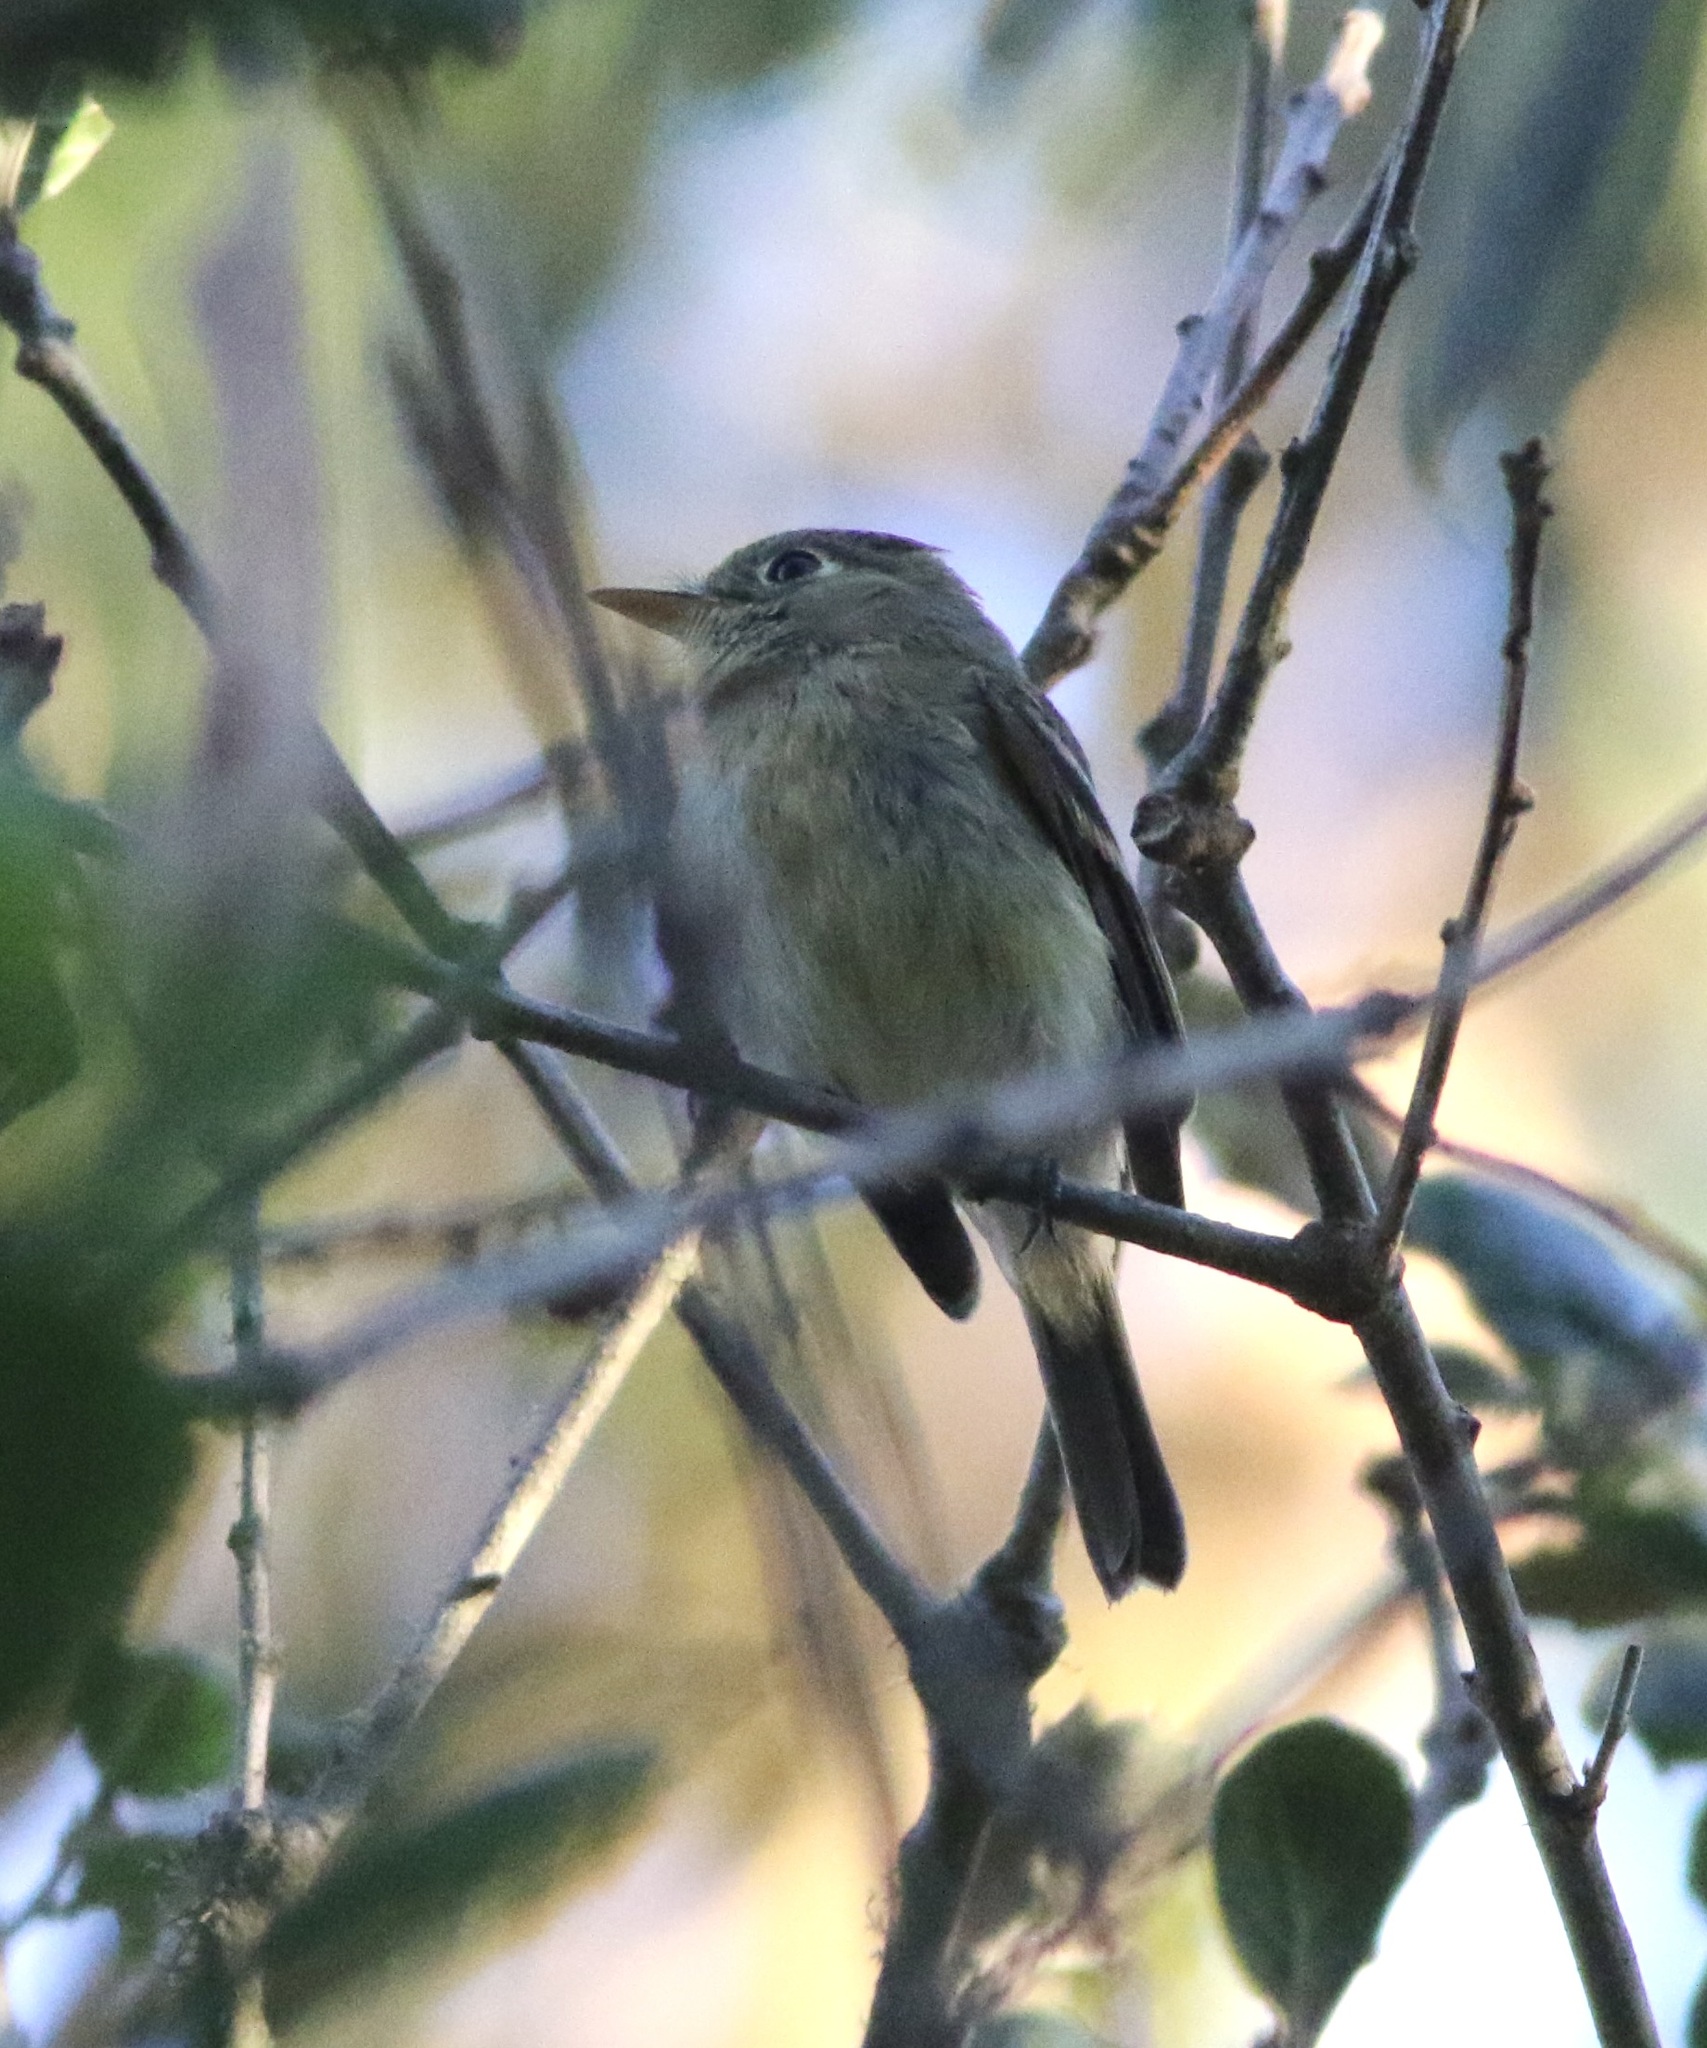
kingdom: Animalia
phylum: Chordata
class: Aves
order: Passeriformes
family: Tyrannidae
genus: Empidonax
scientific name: Empidonax difficilis
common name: Pacific-slope flycatcher
